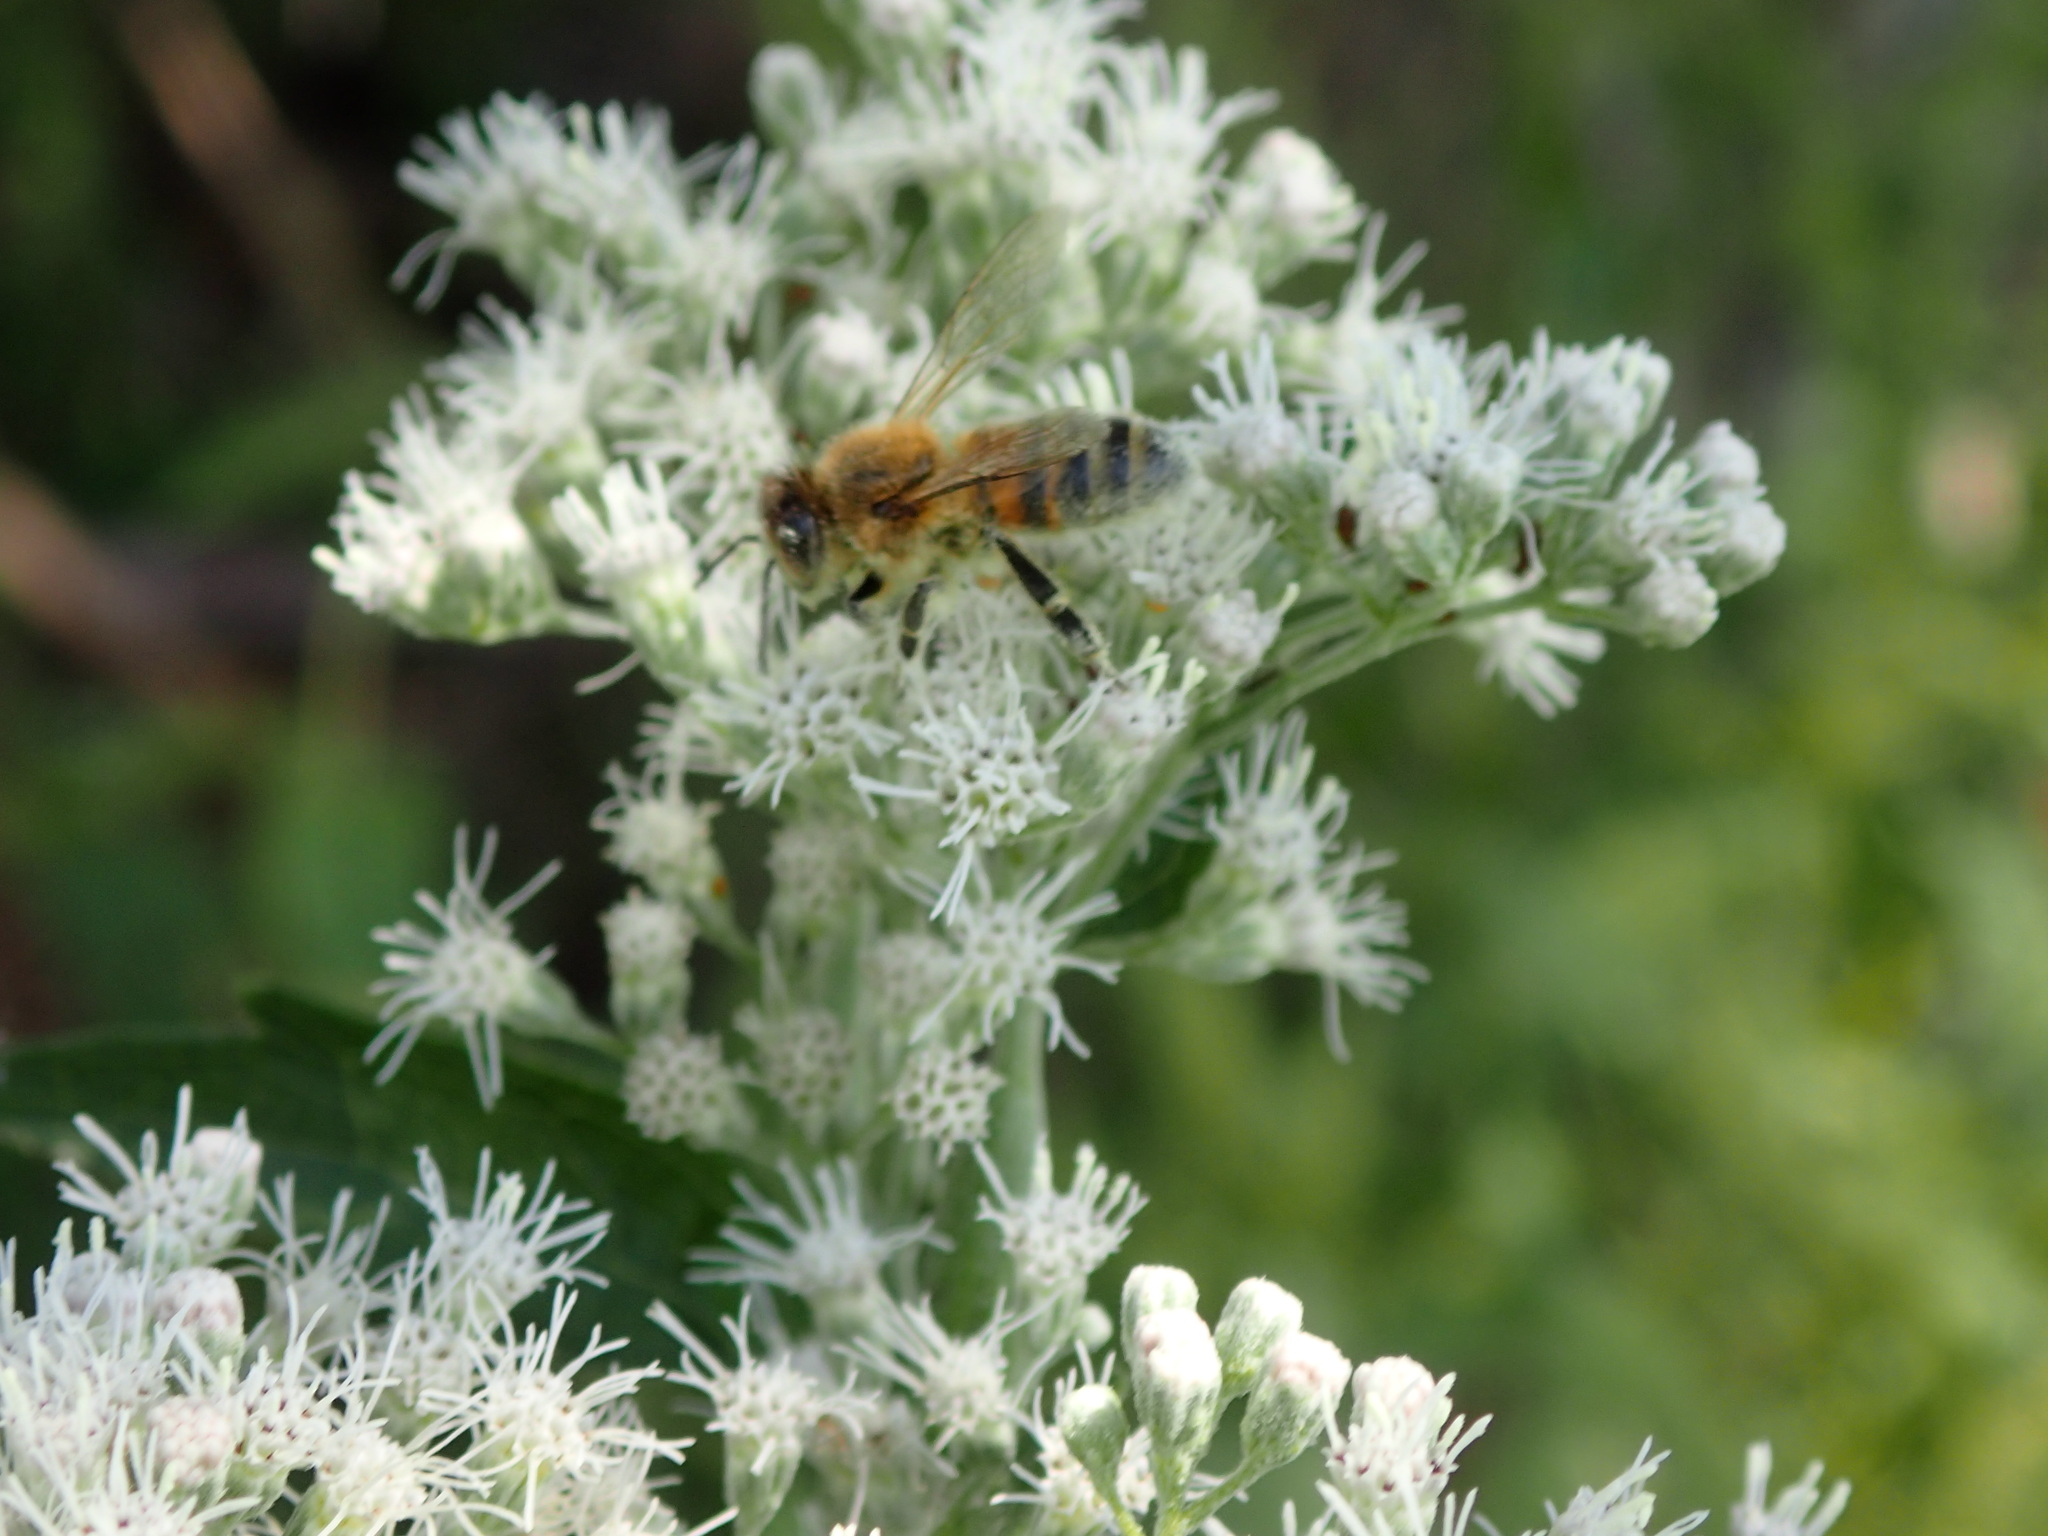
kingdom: Animalia
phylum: Arthropoda
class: Insecta
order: Hymenoptera
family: Apidae
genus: Apis
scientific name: Apis mellifera
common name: Honey bee
